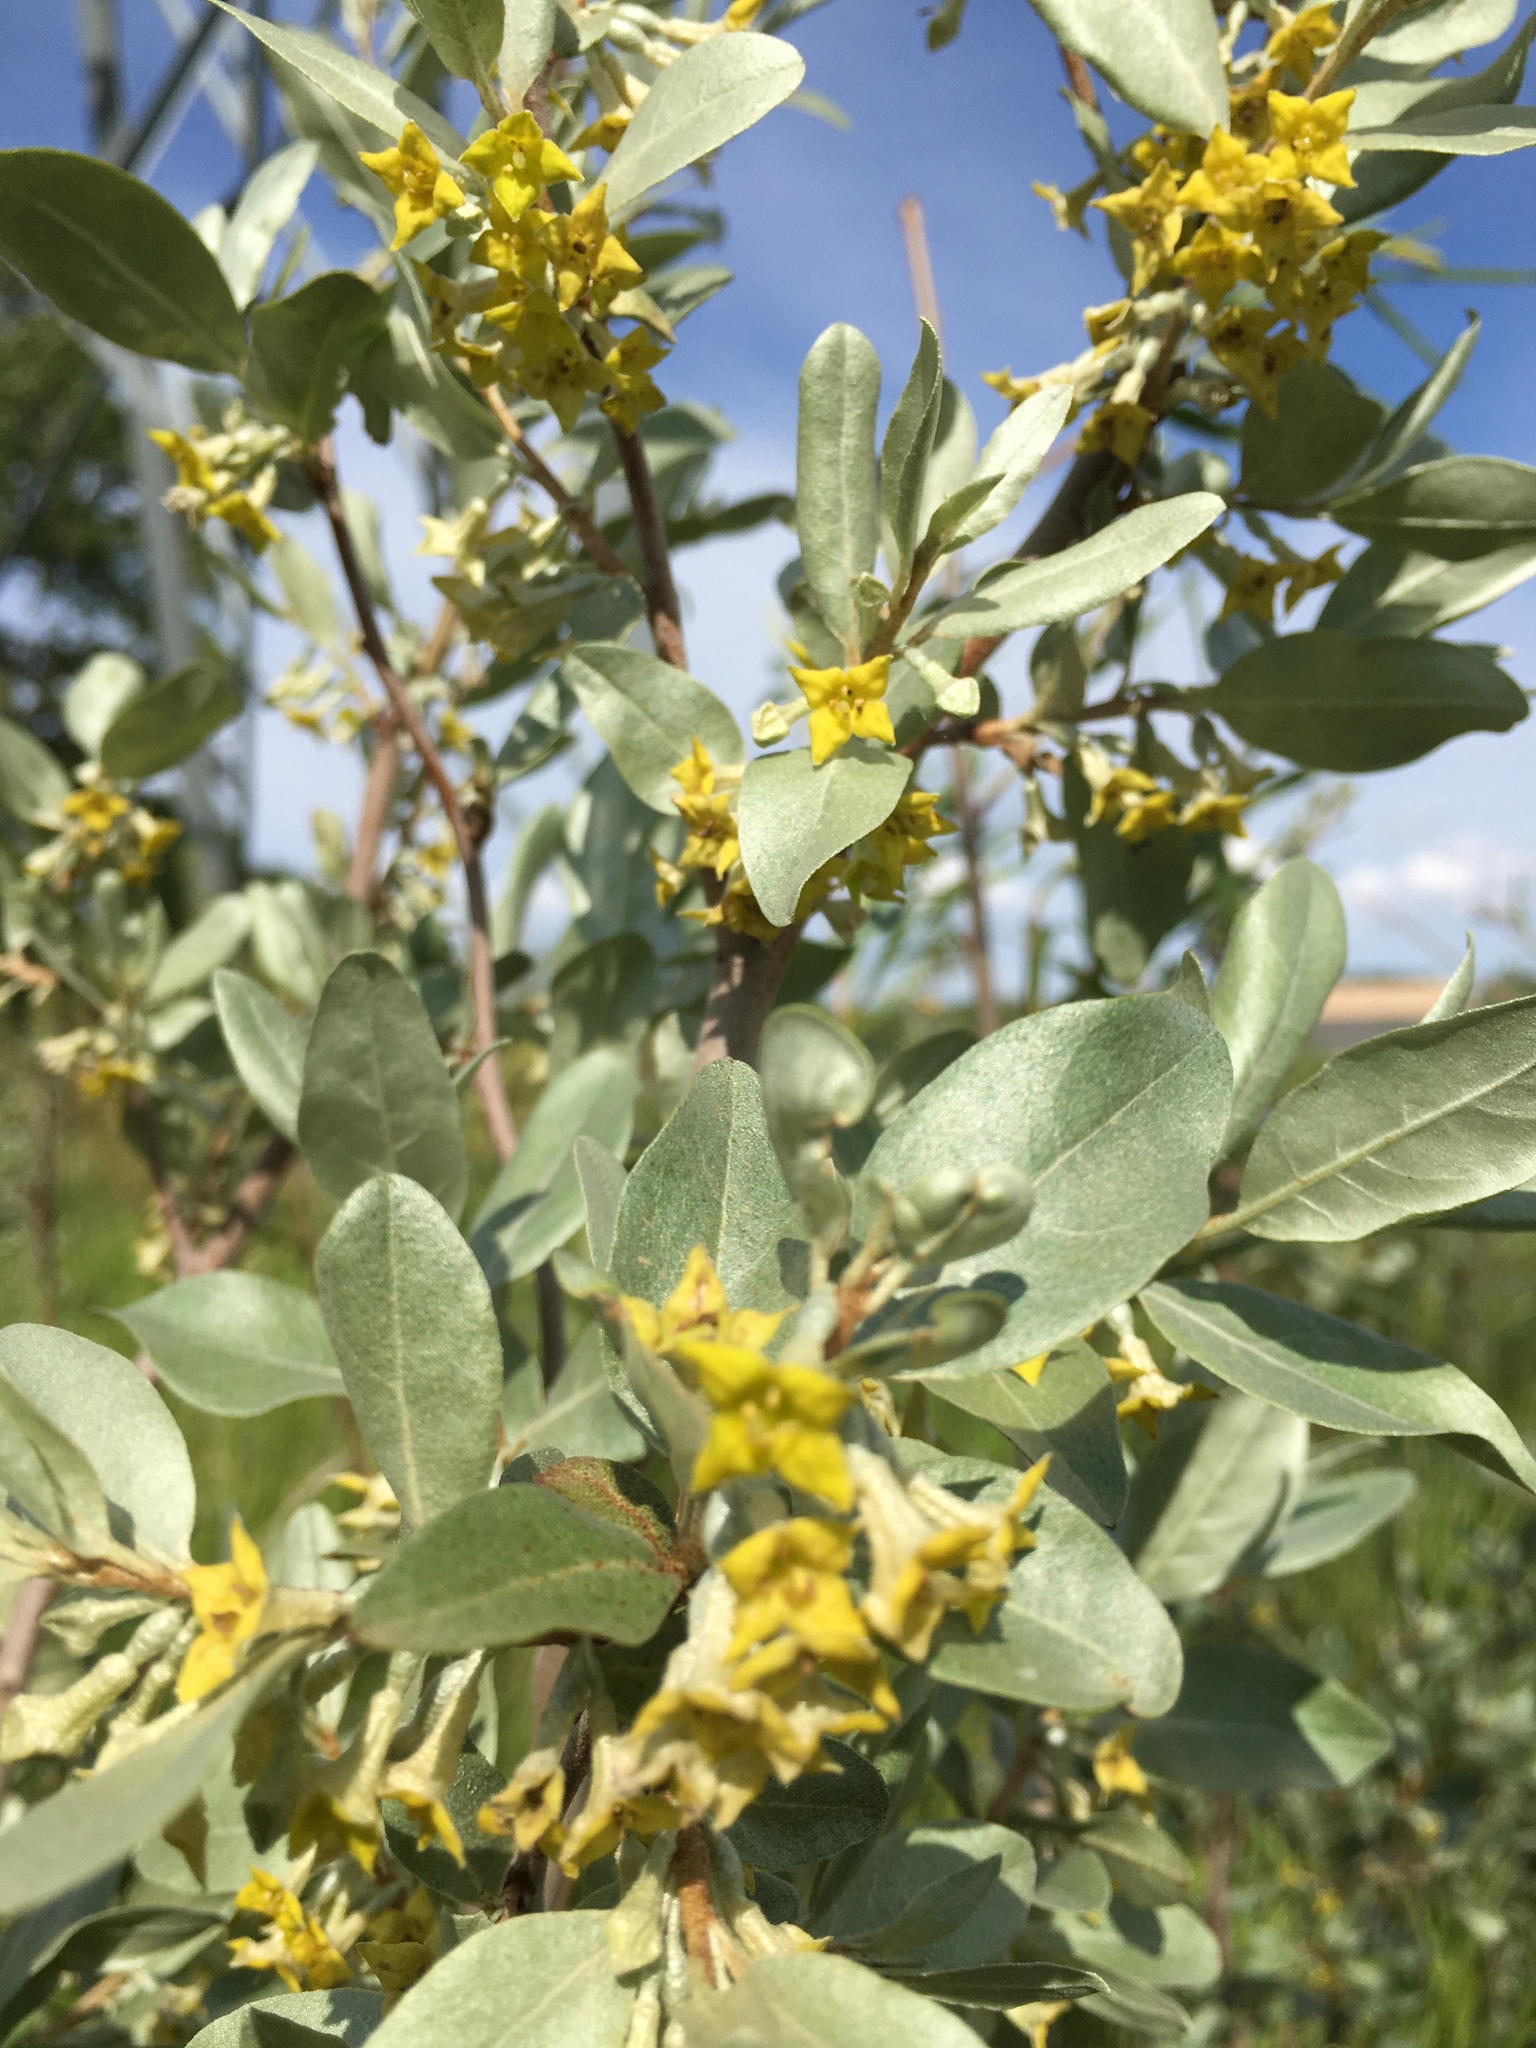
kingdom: Plantae
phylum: Tracheophyta
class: Magnoliopsida
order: Rosales
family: Elaeagnaceae
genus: Elaeagnus
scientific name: Elaeagnus commutata
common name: Silverberry
